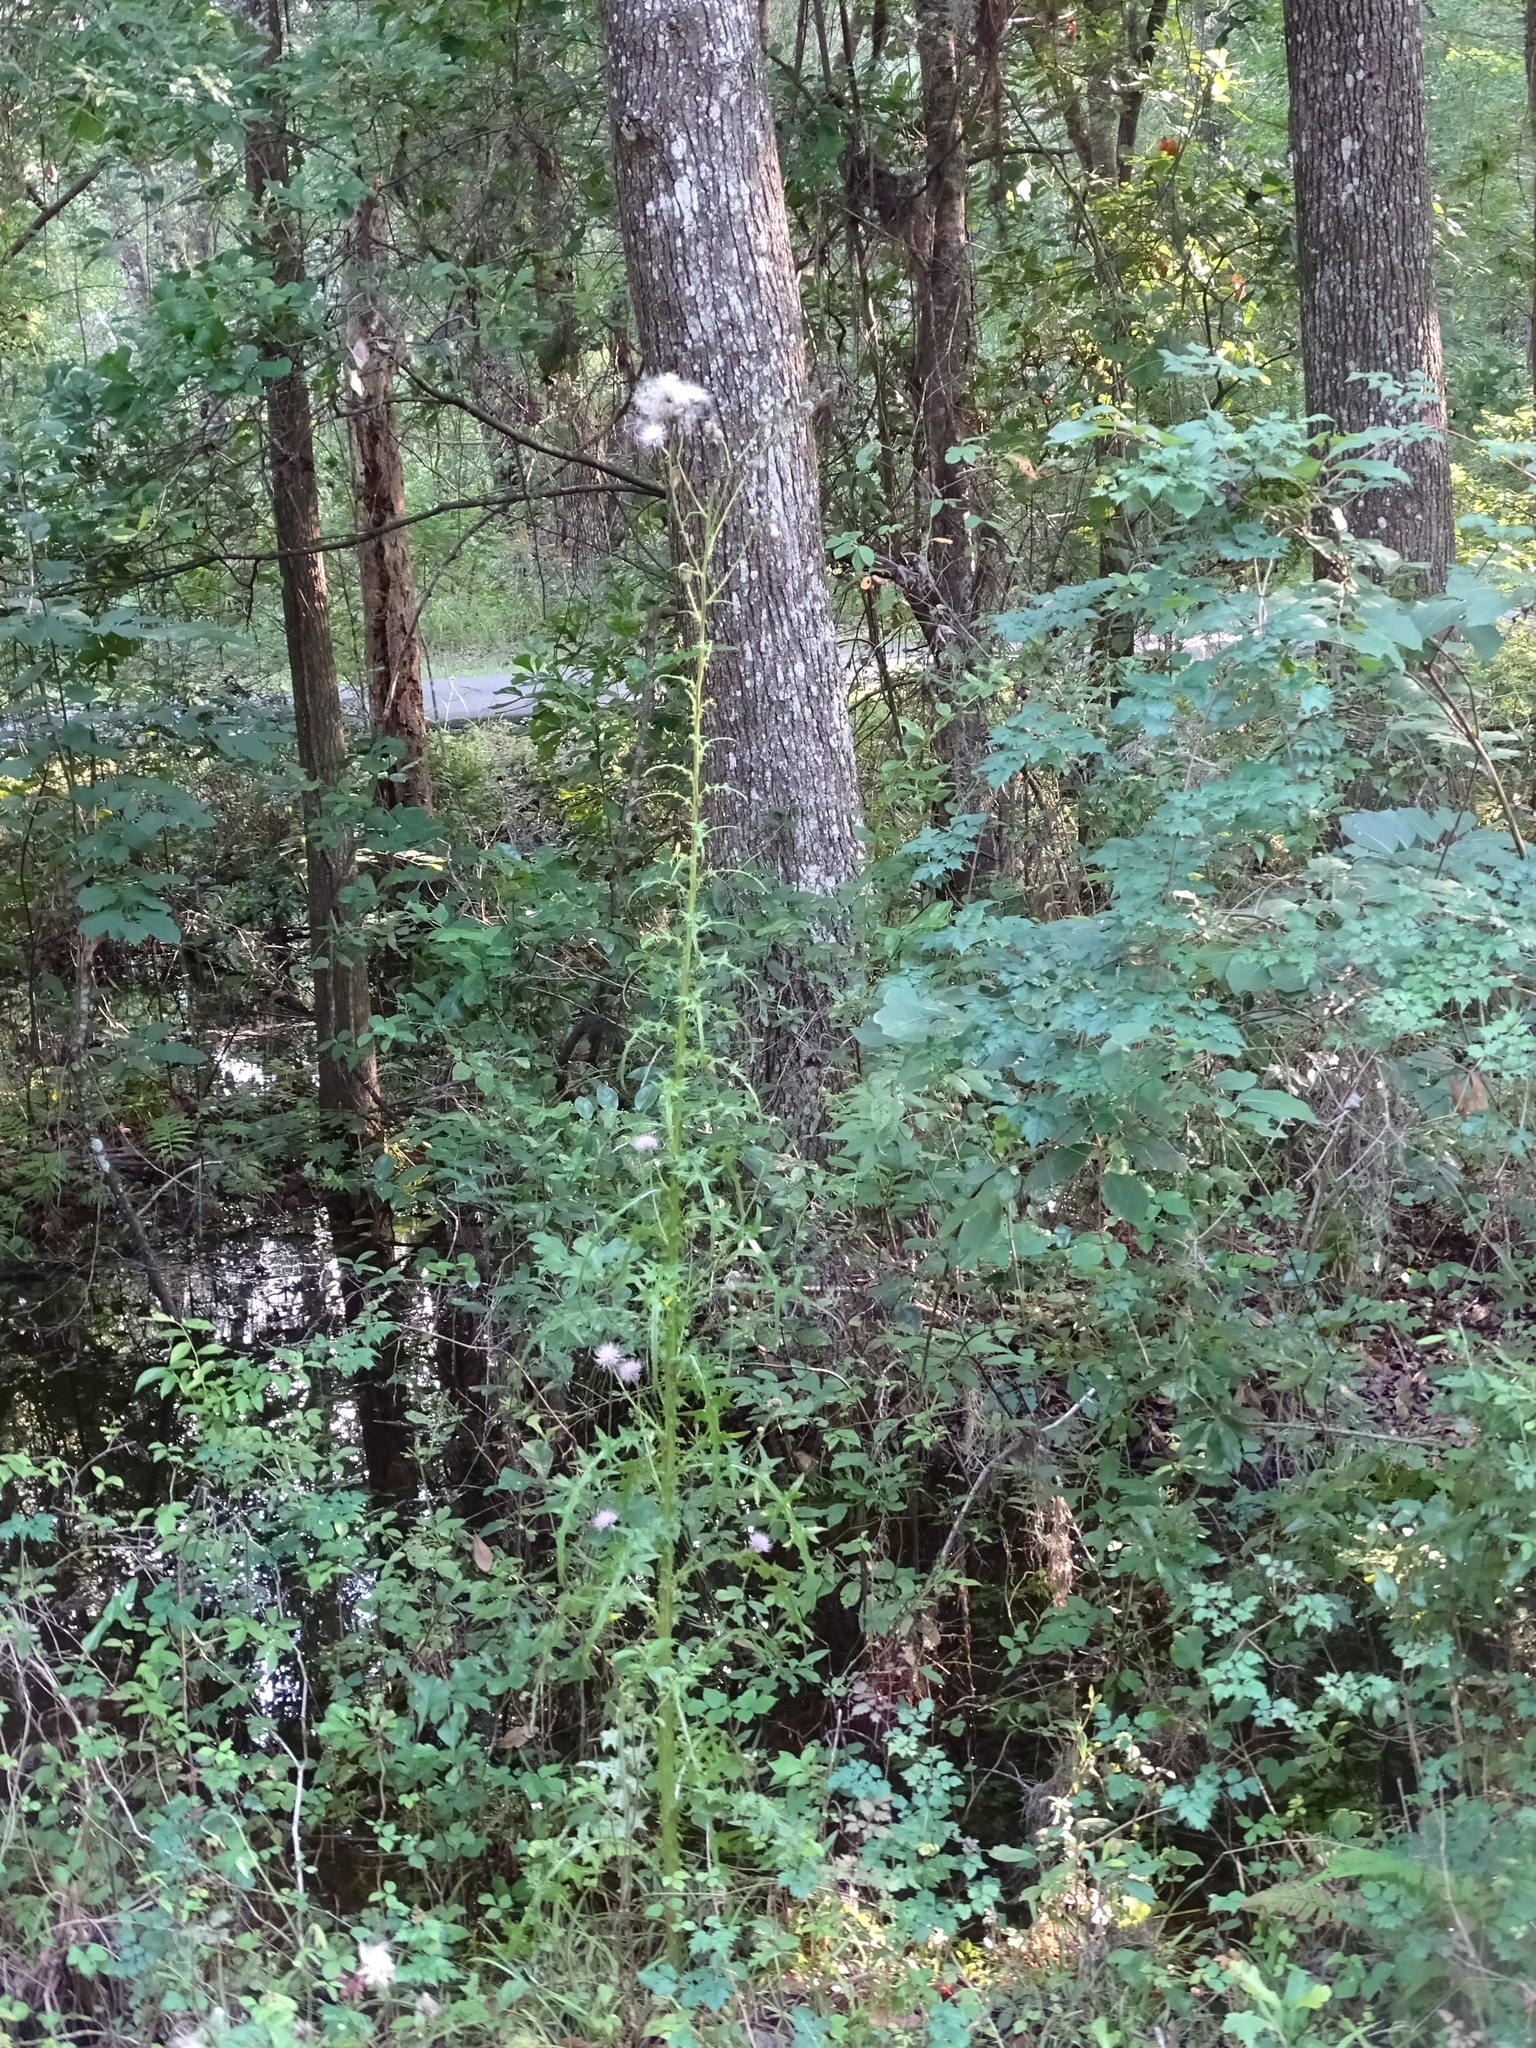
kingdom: Plantae
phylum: Tracheophyta
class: Magnoliopsida
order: Asterales
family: Asteraceae
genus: Cirsium
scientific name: Cirsium nuttalii
